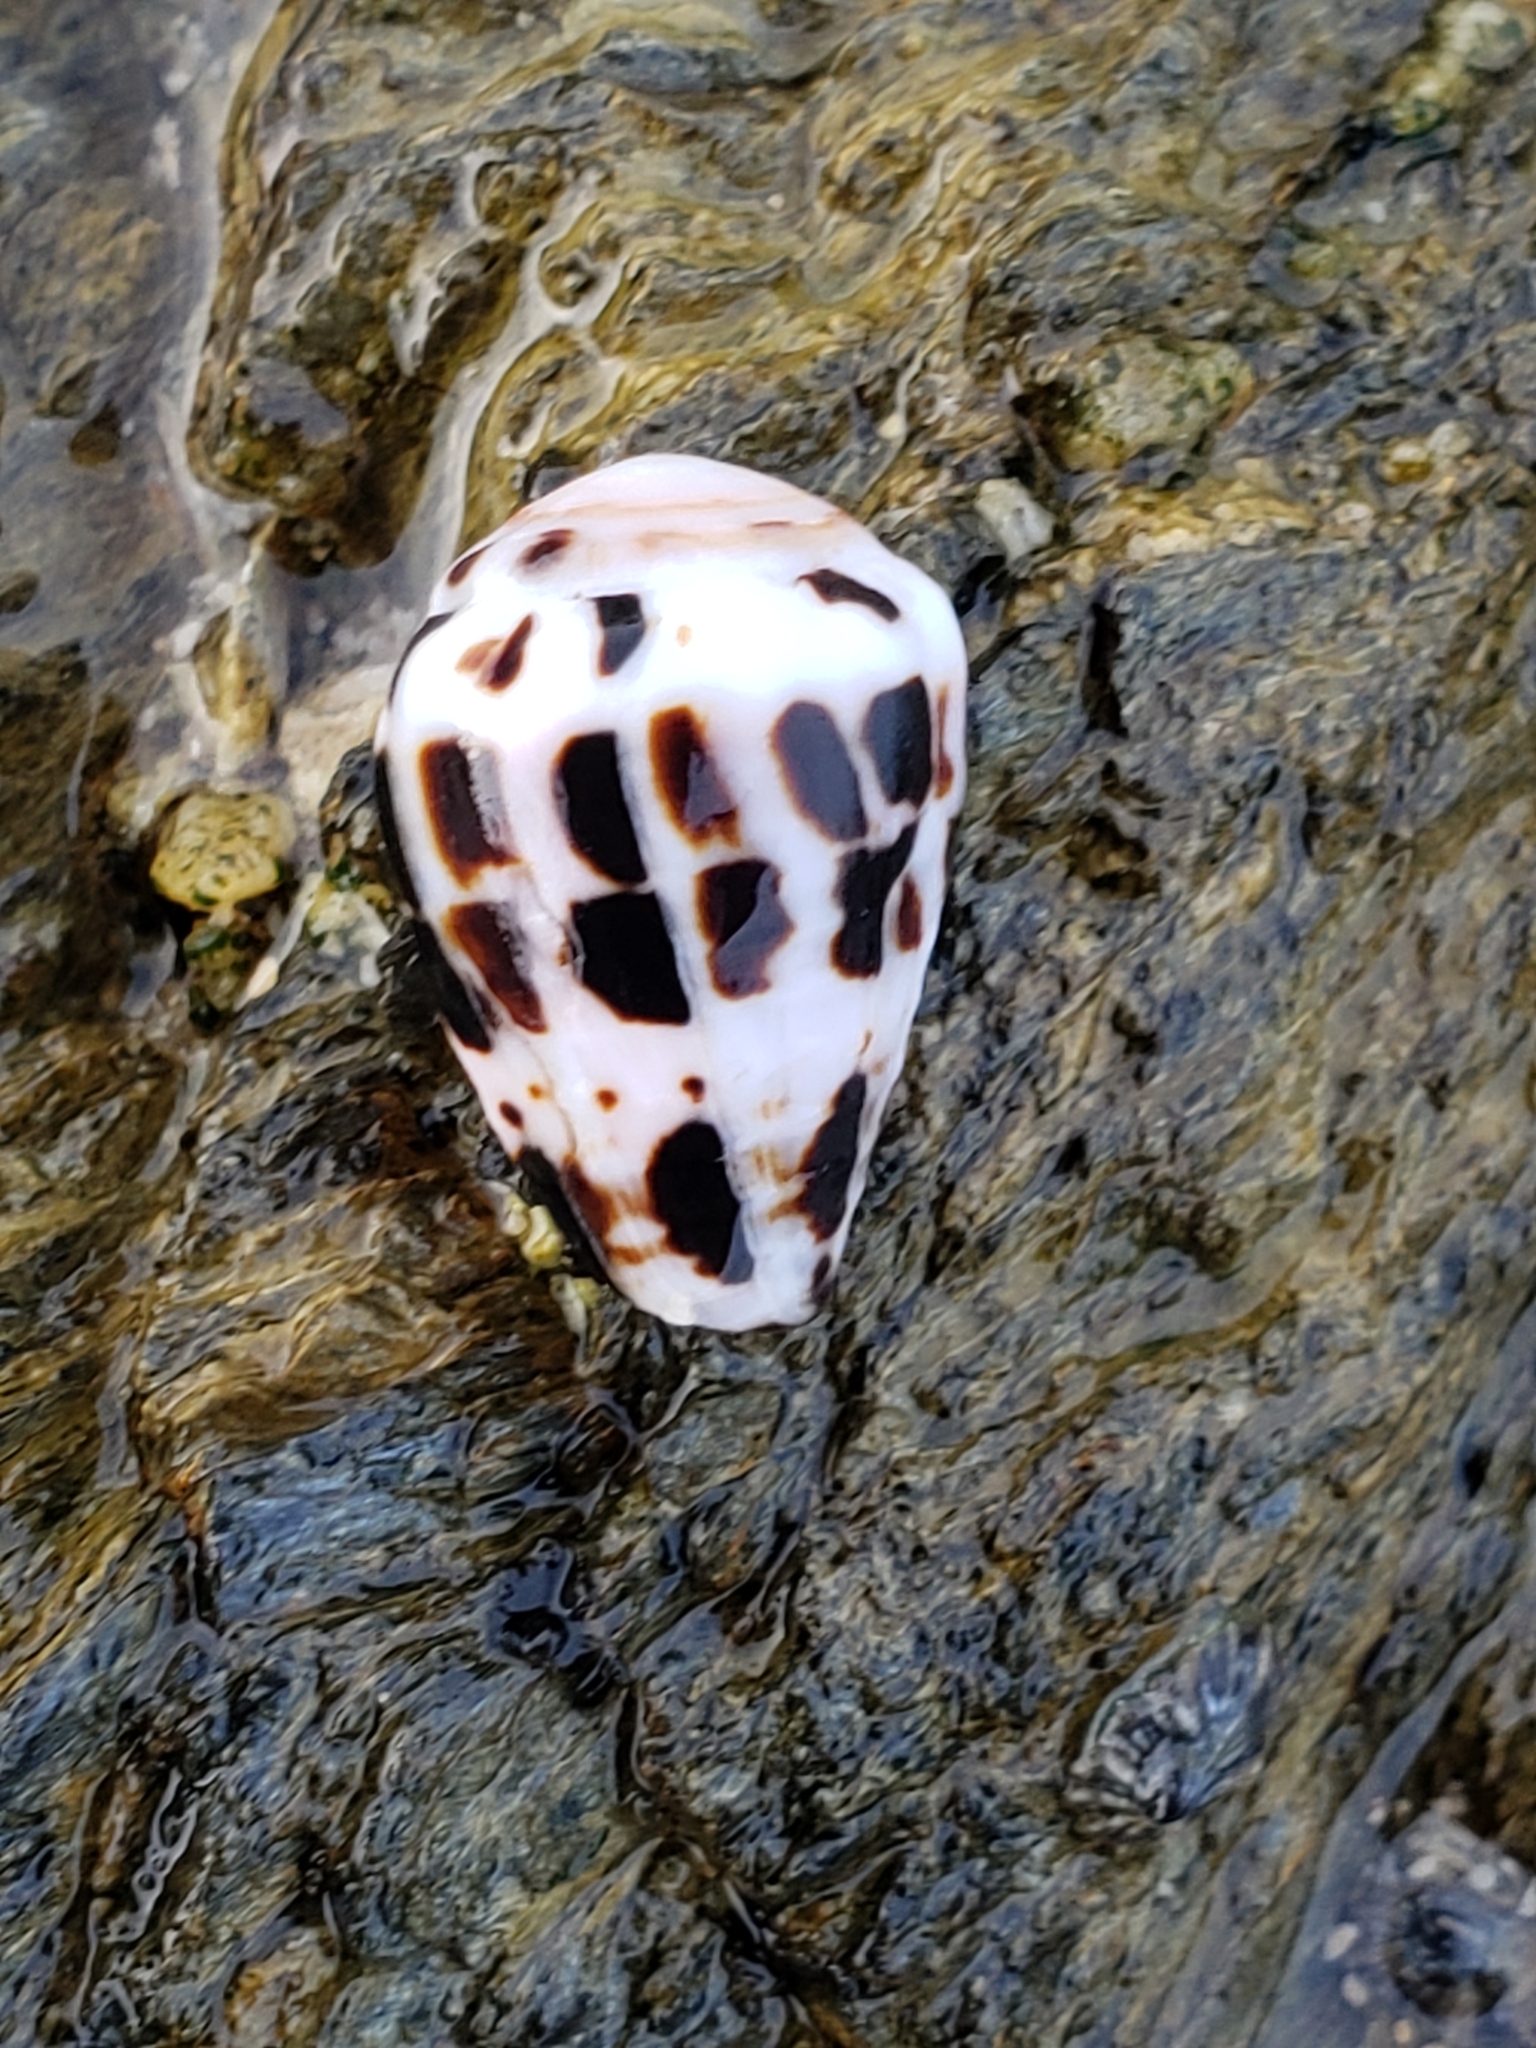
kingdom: Animalia
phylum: Mollusca
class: Gastropoda
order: Neogastropoda
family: Conidae
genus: Conus
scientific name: Conus ebraeus
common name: Hebrew cone
